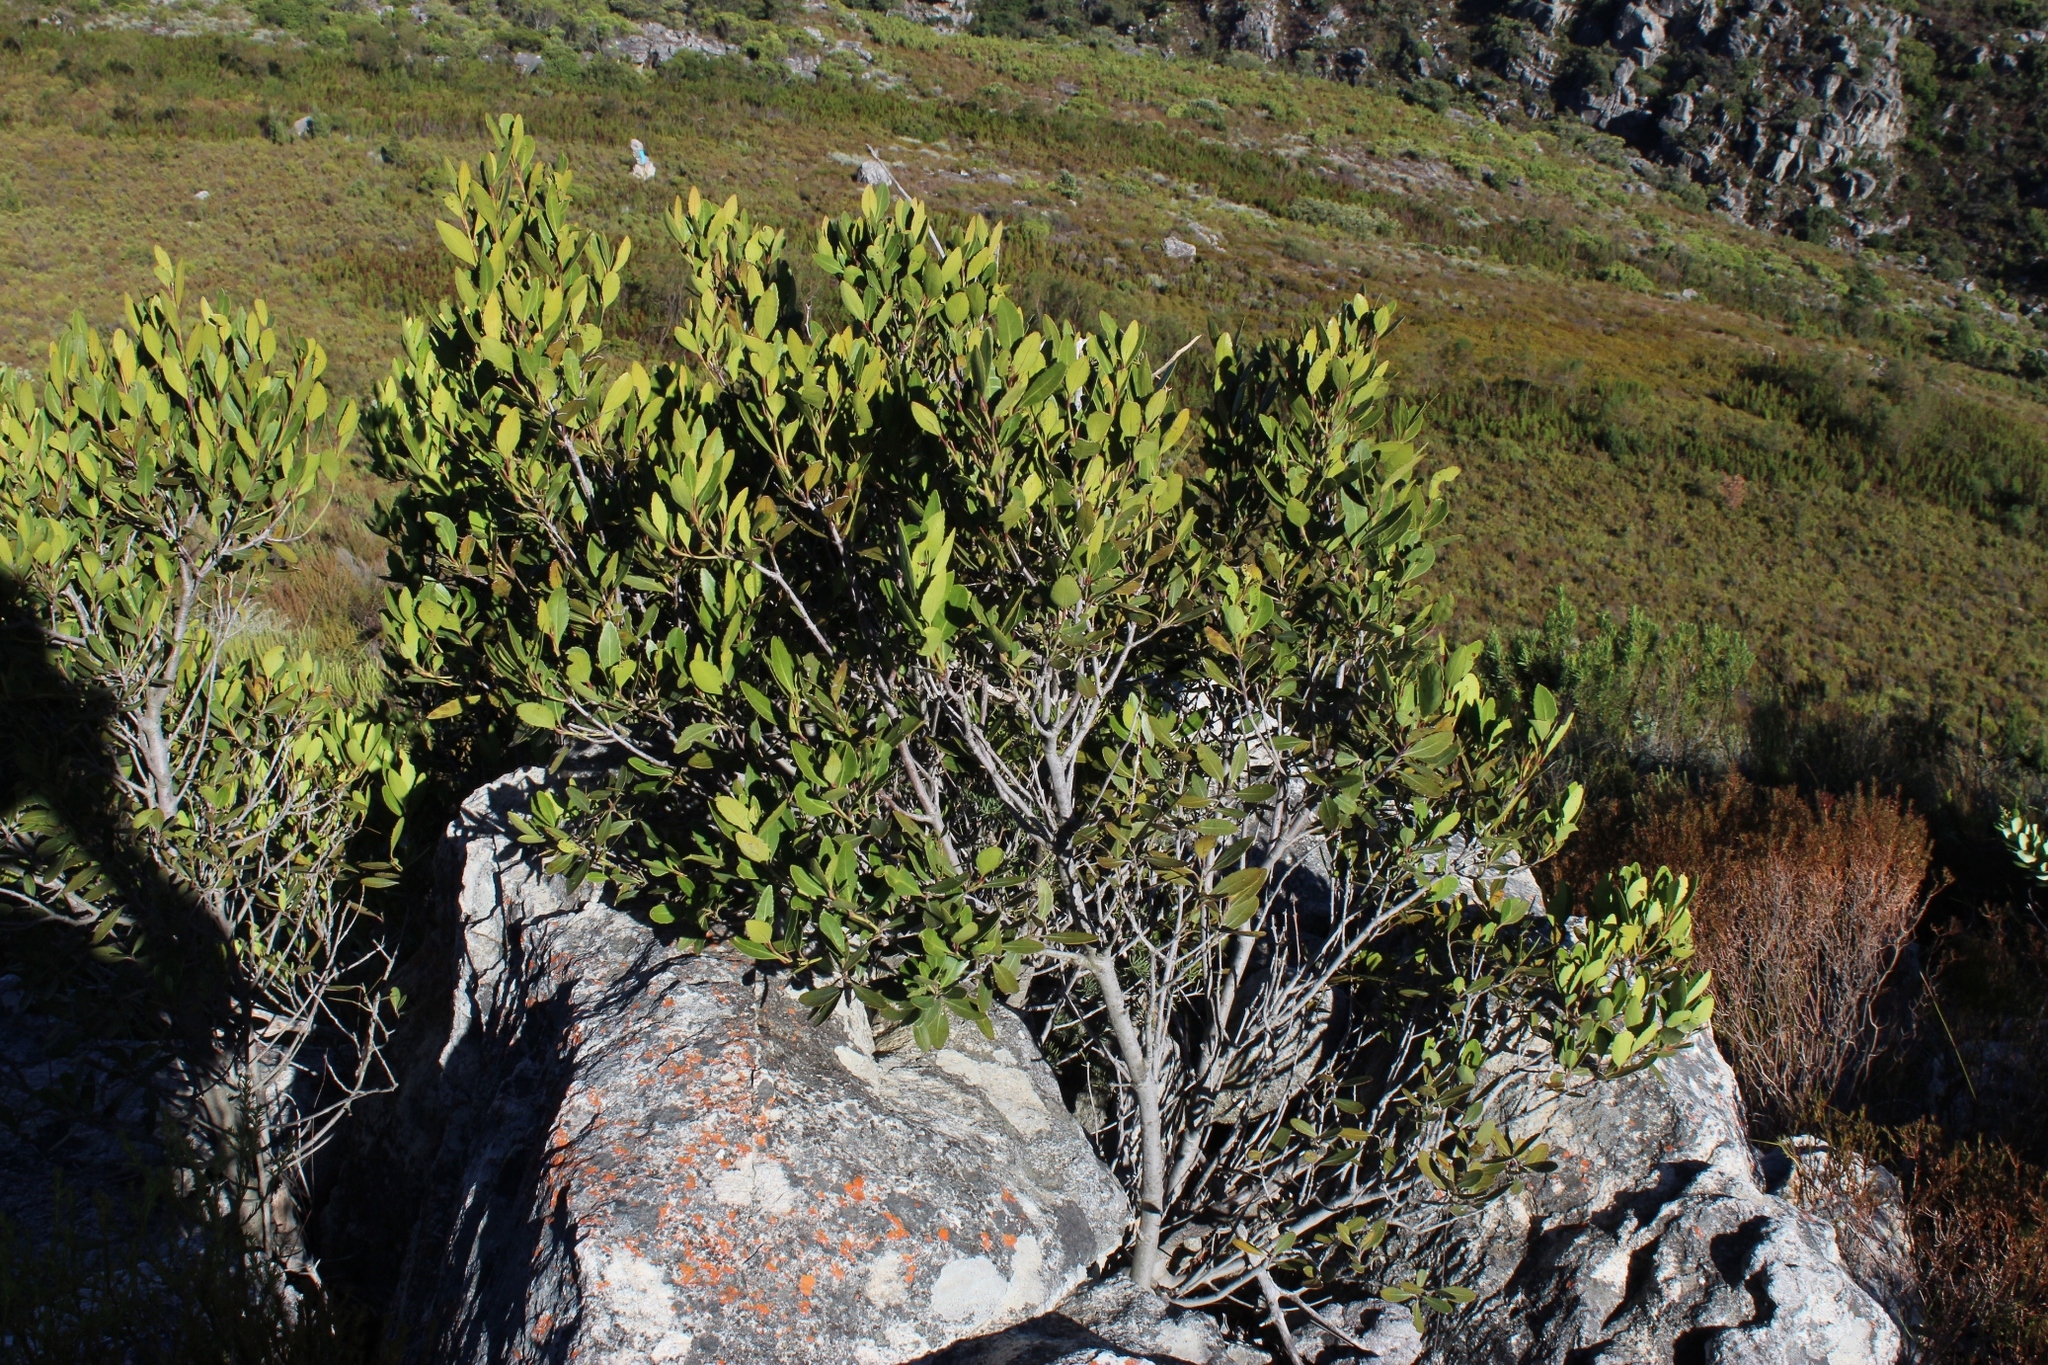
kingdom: Plantae
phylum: Tracheophyta
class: Magnoliopsida
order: Celastrales
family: Celastraceae
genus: Elaeodendron
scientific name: Elaeodendron schinoides
